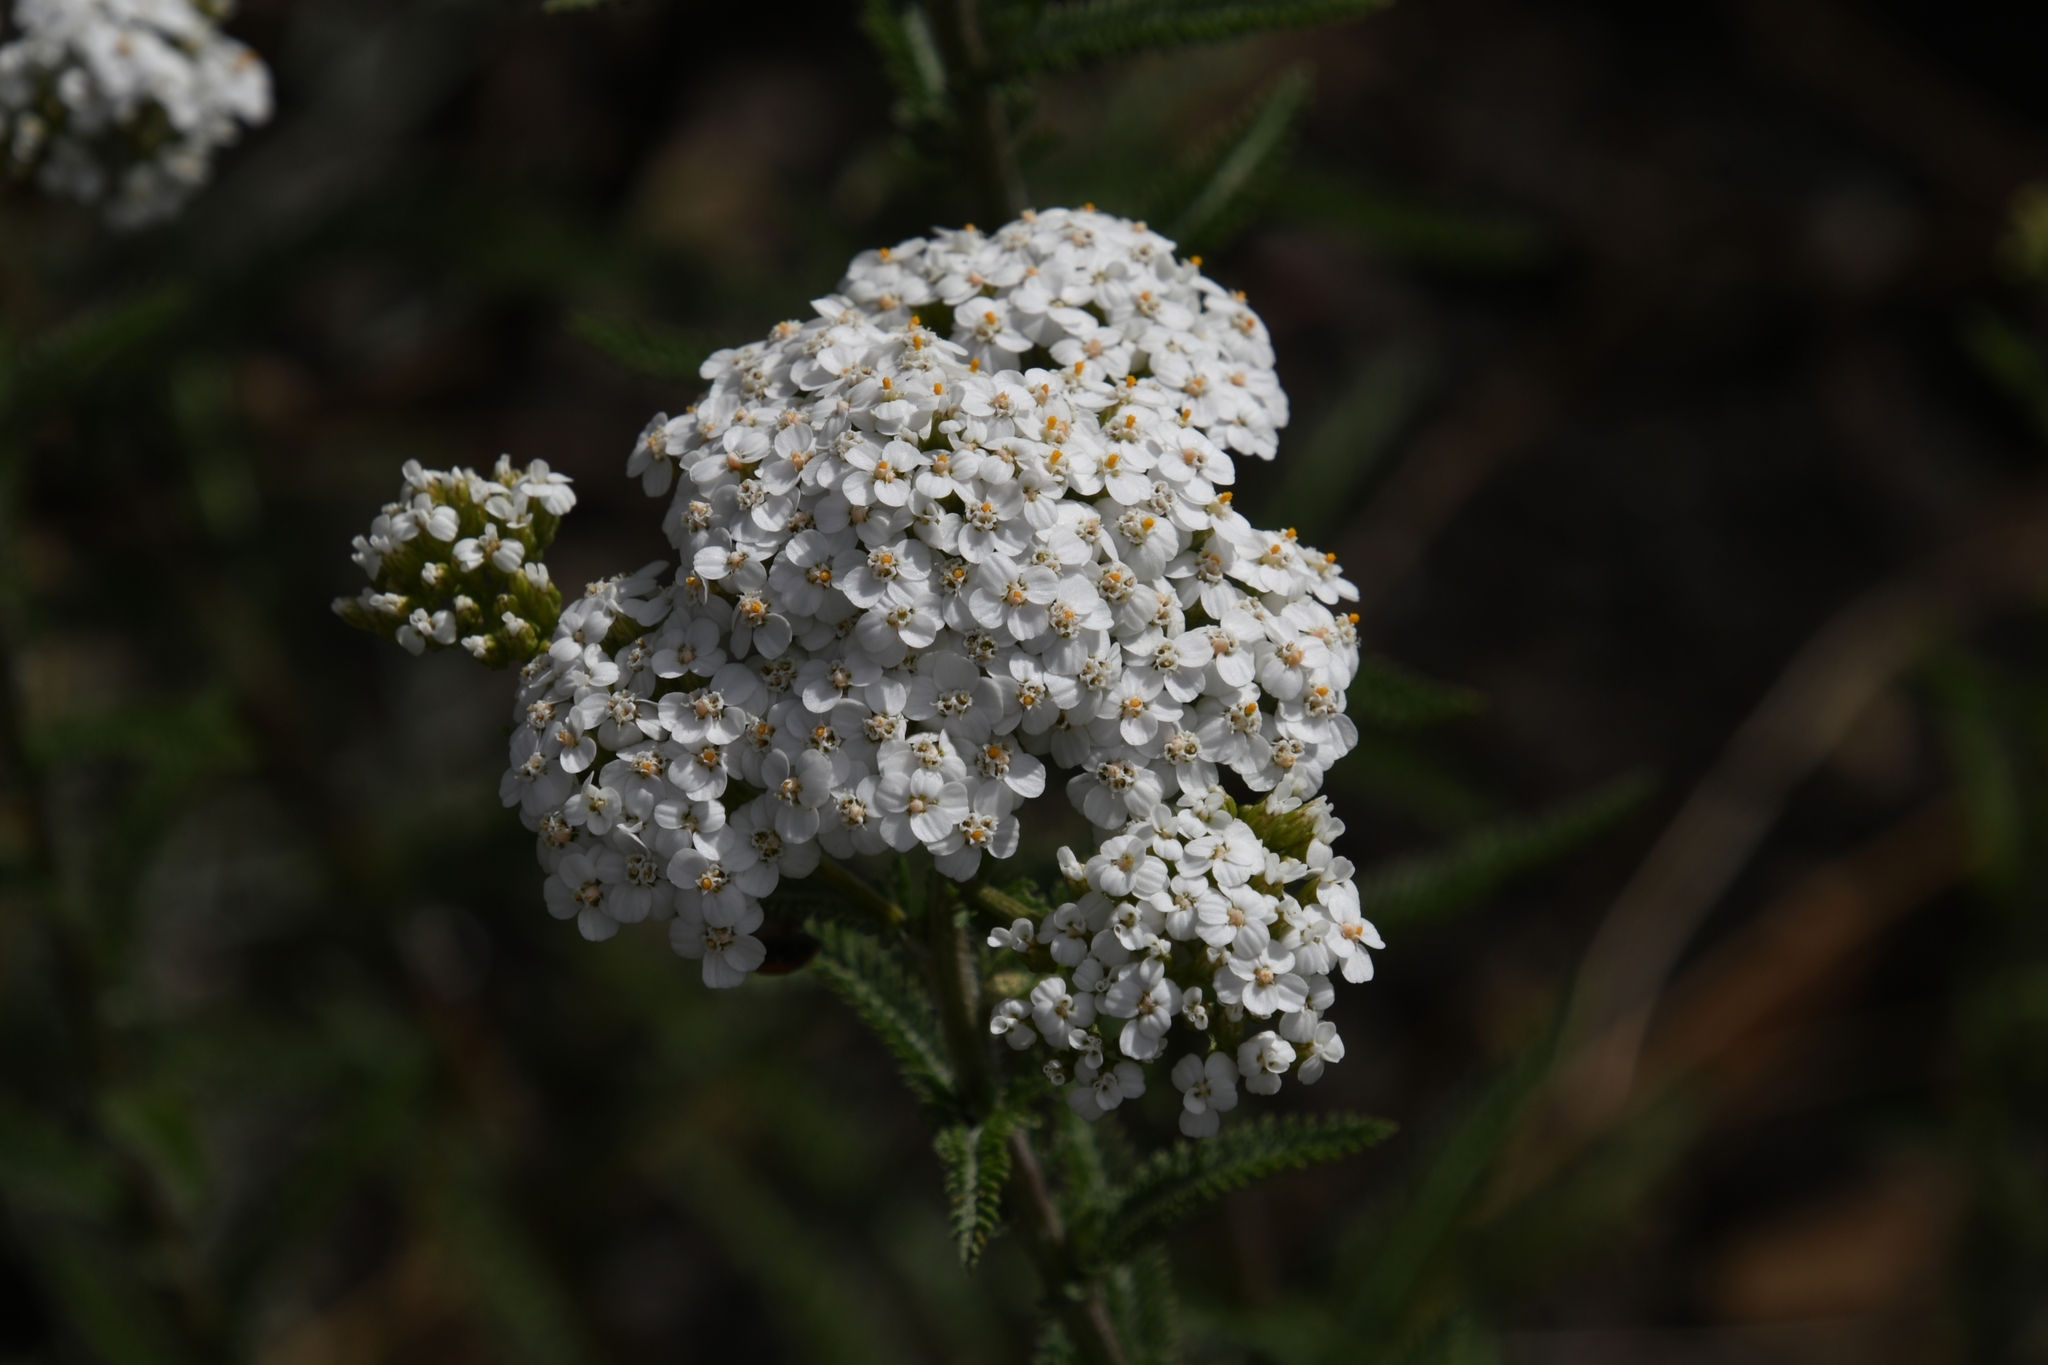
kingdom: Plantae
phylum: Tracheophyta
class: Magnoliopsida
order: Asterales
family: Asteraceae
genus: Achillea
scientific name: Achillea millefolium
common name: Yarrow
